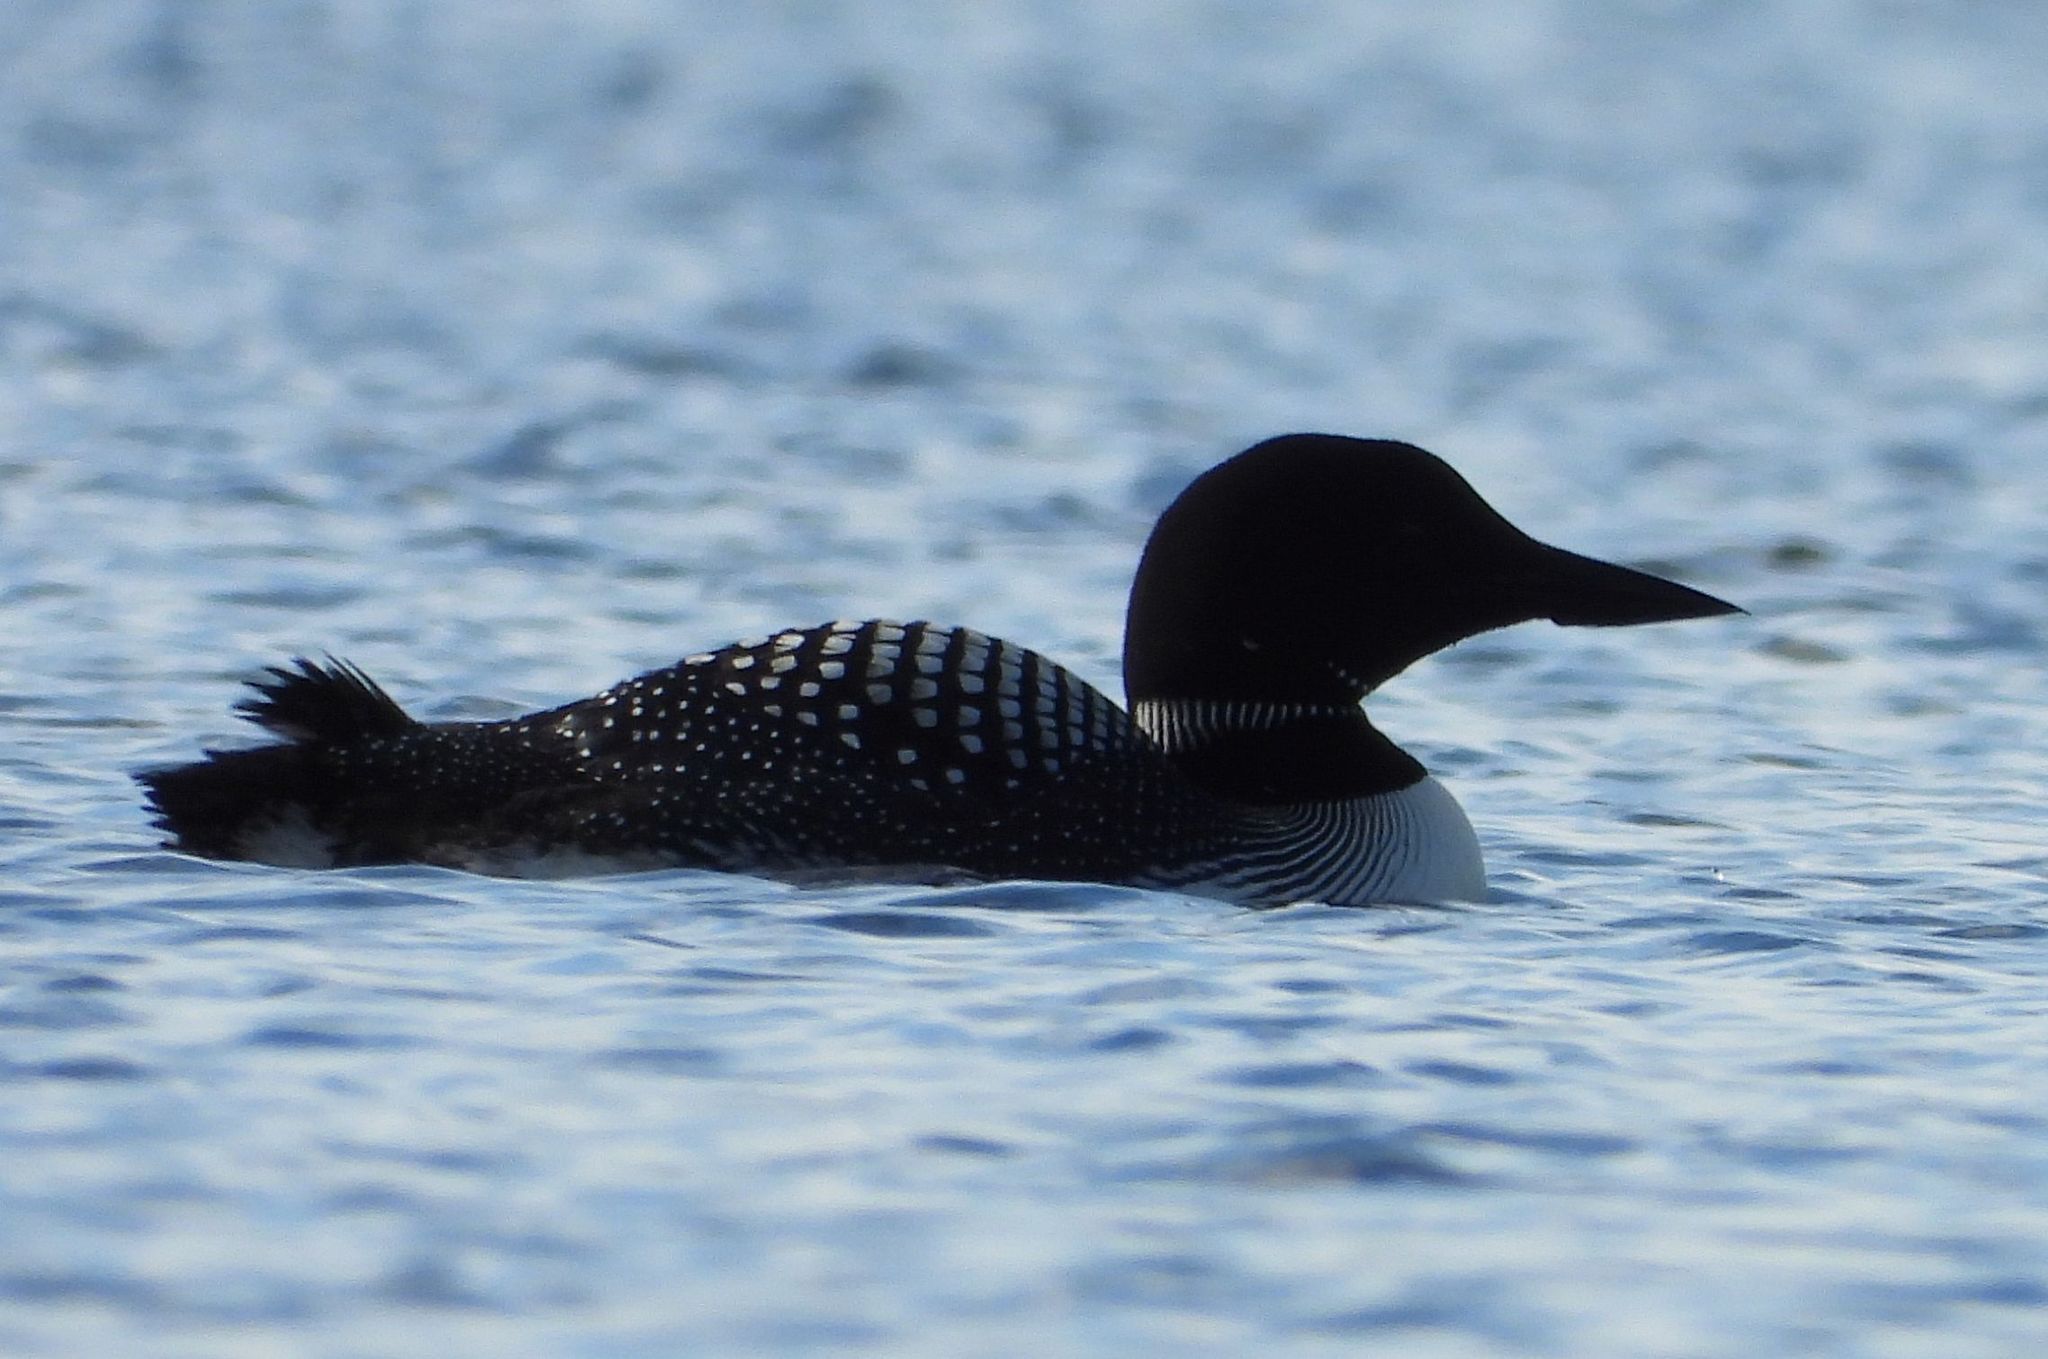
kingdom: Animalia
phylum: Chordata
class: Aves
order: Gaviiformes
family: Gaviidae
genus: Gavia
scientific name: Gavia immer
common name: Common loon
